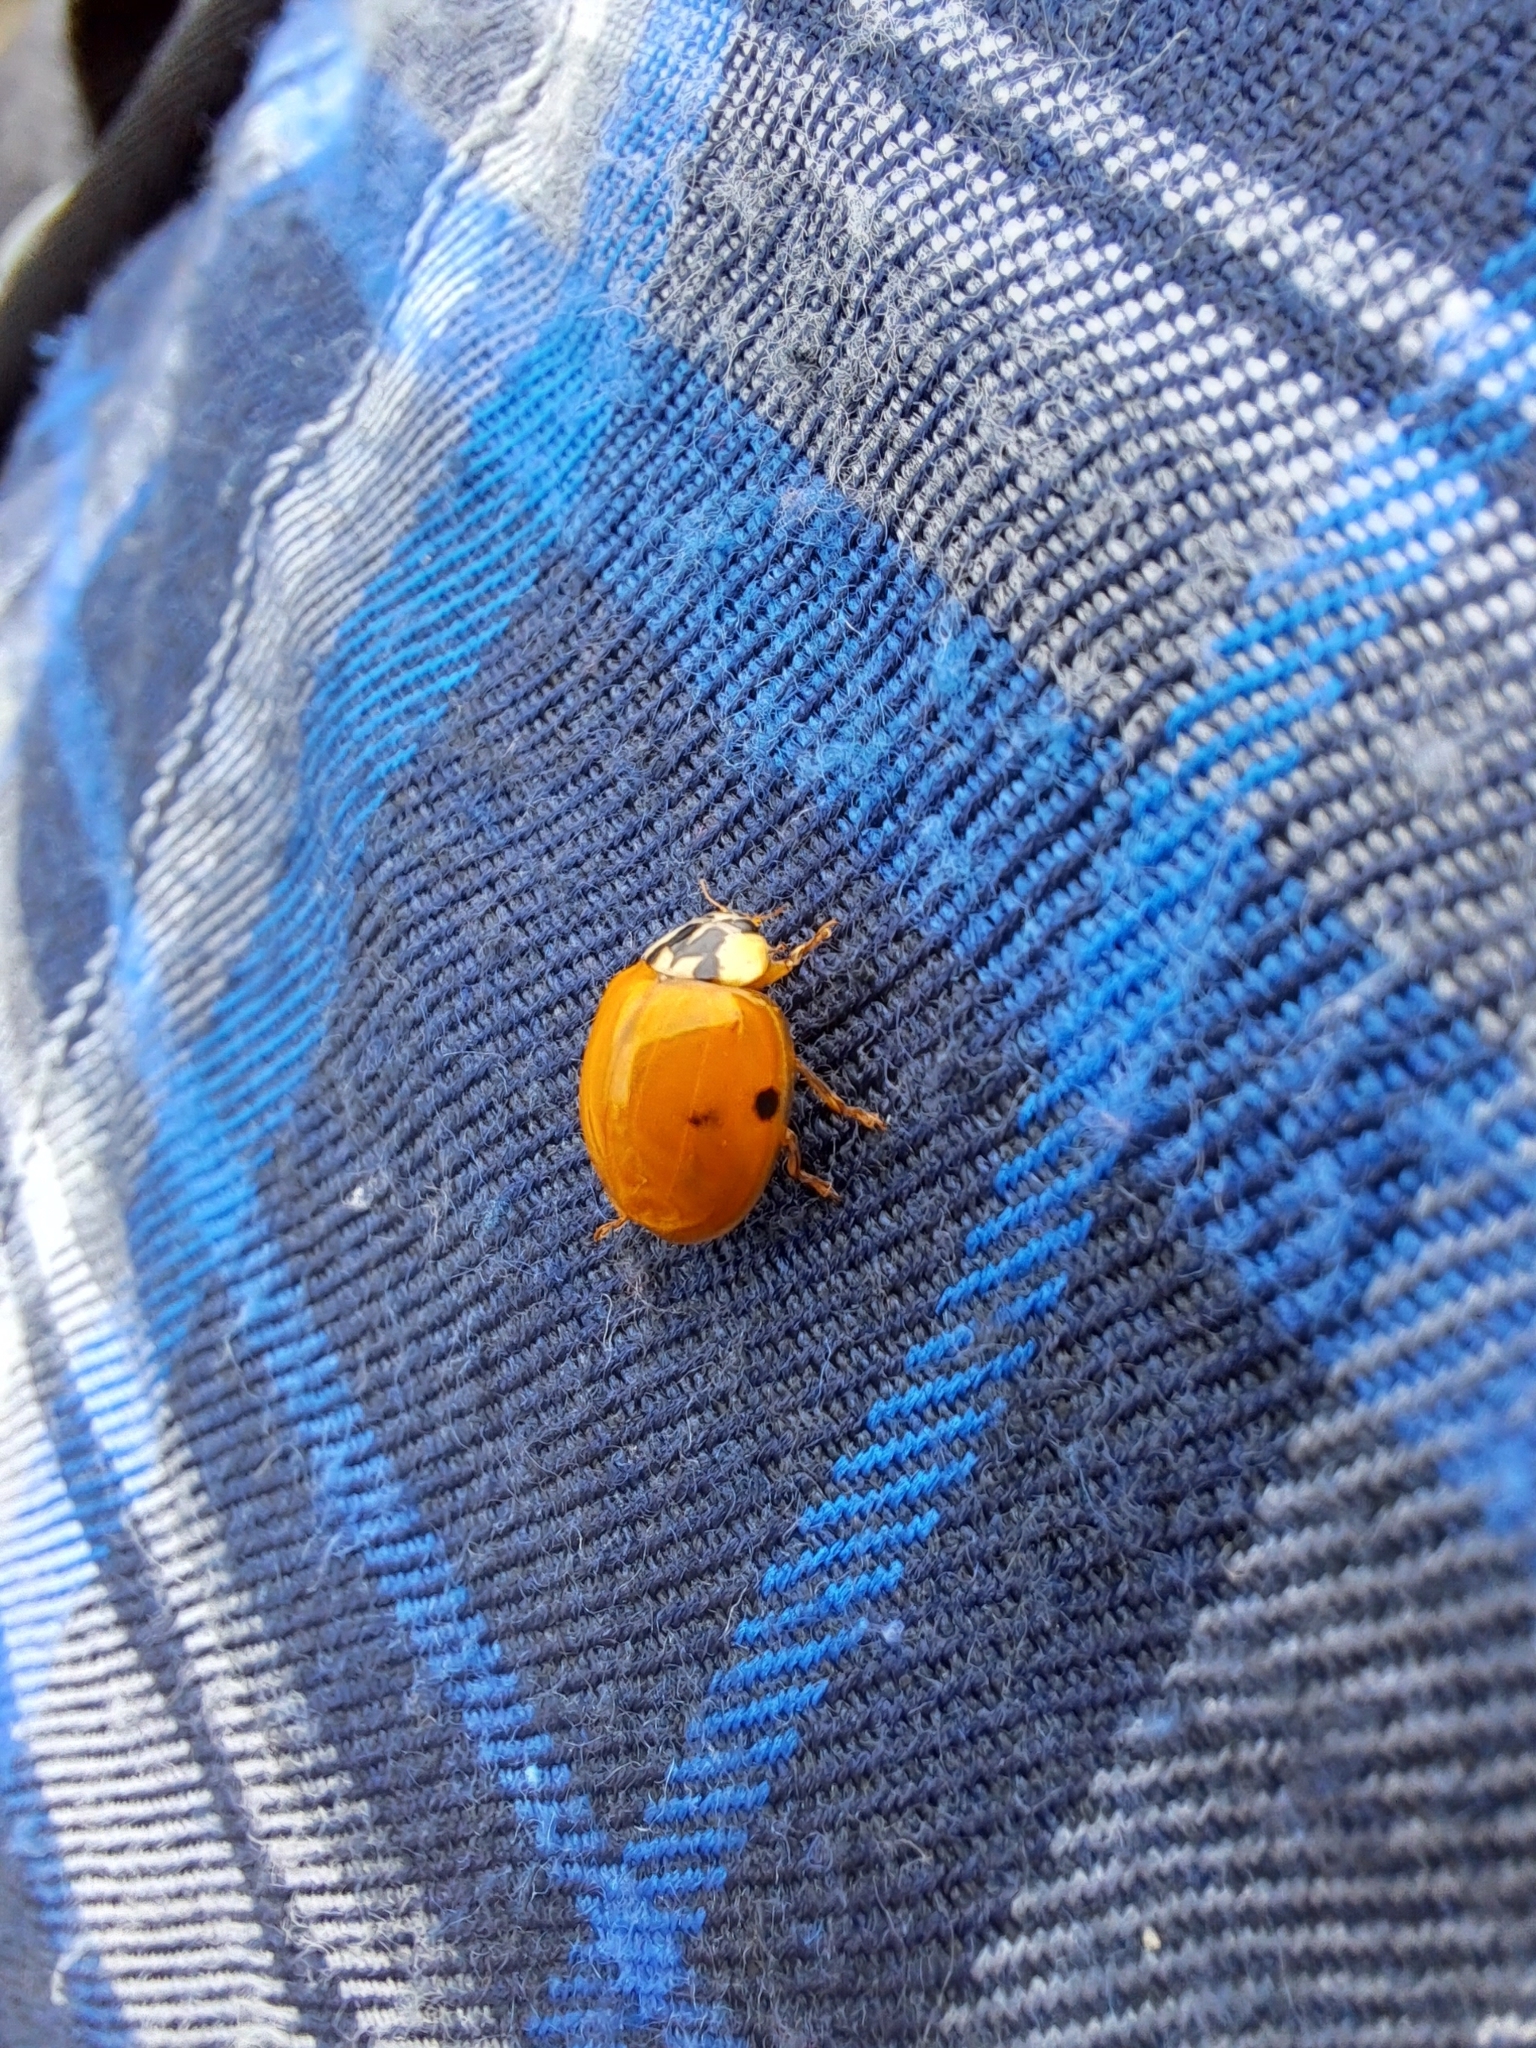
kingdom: Animalia
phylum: Arthropoda
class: Insecta
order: Coleoptera
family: Coccinellidae
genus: Harmonia
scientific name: Harmonia axyridis
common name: Harlequin ladybird
